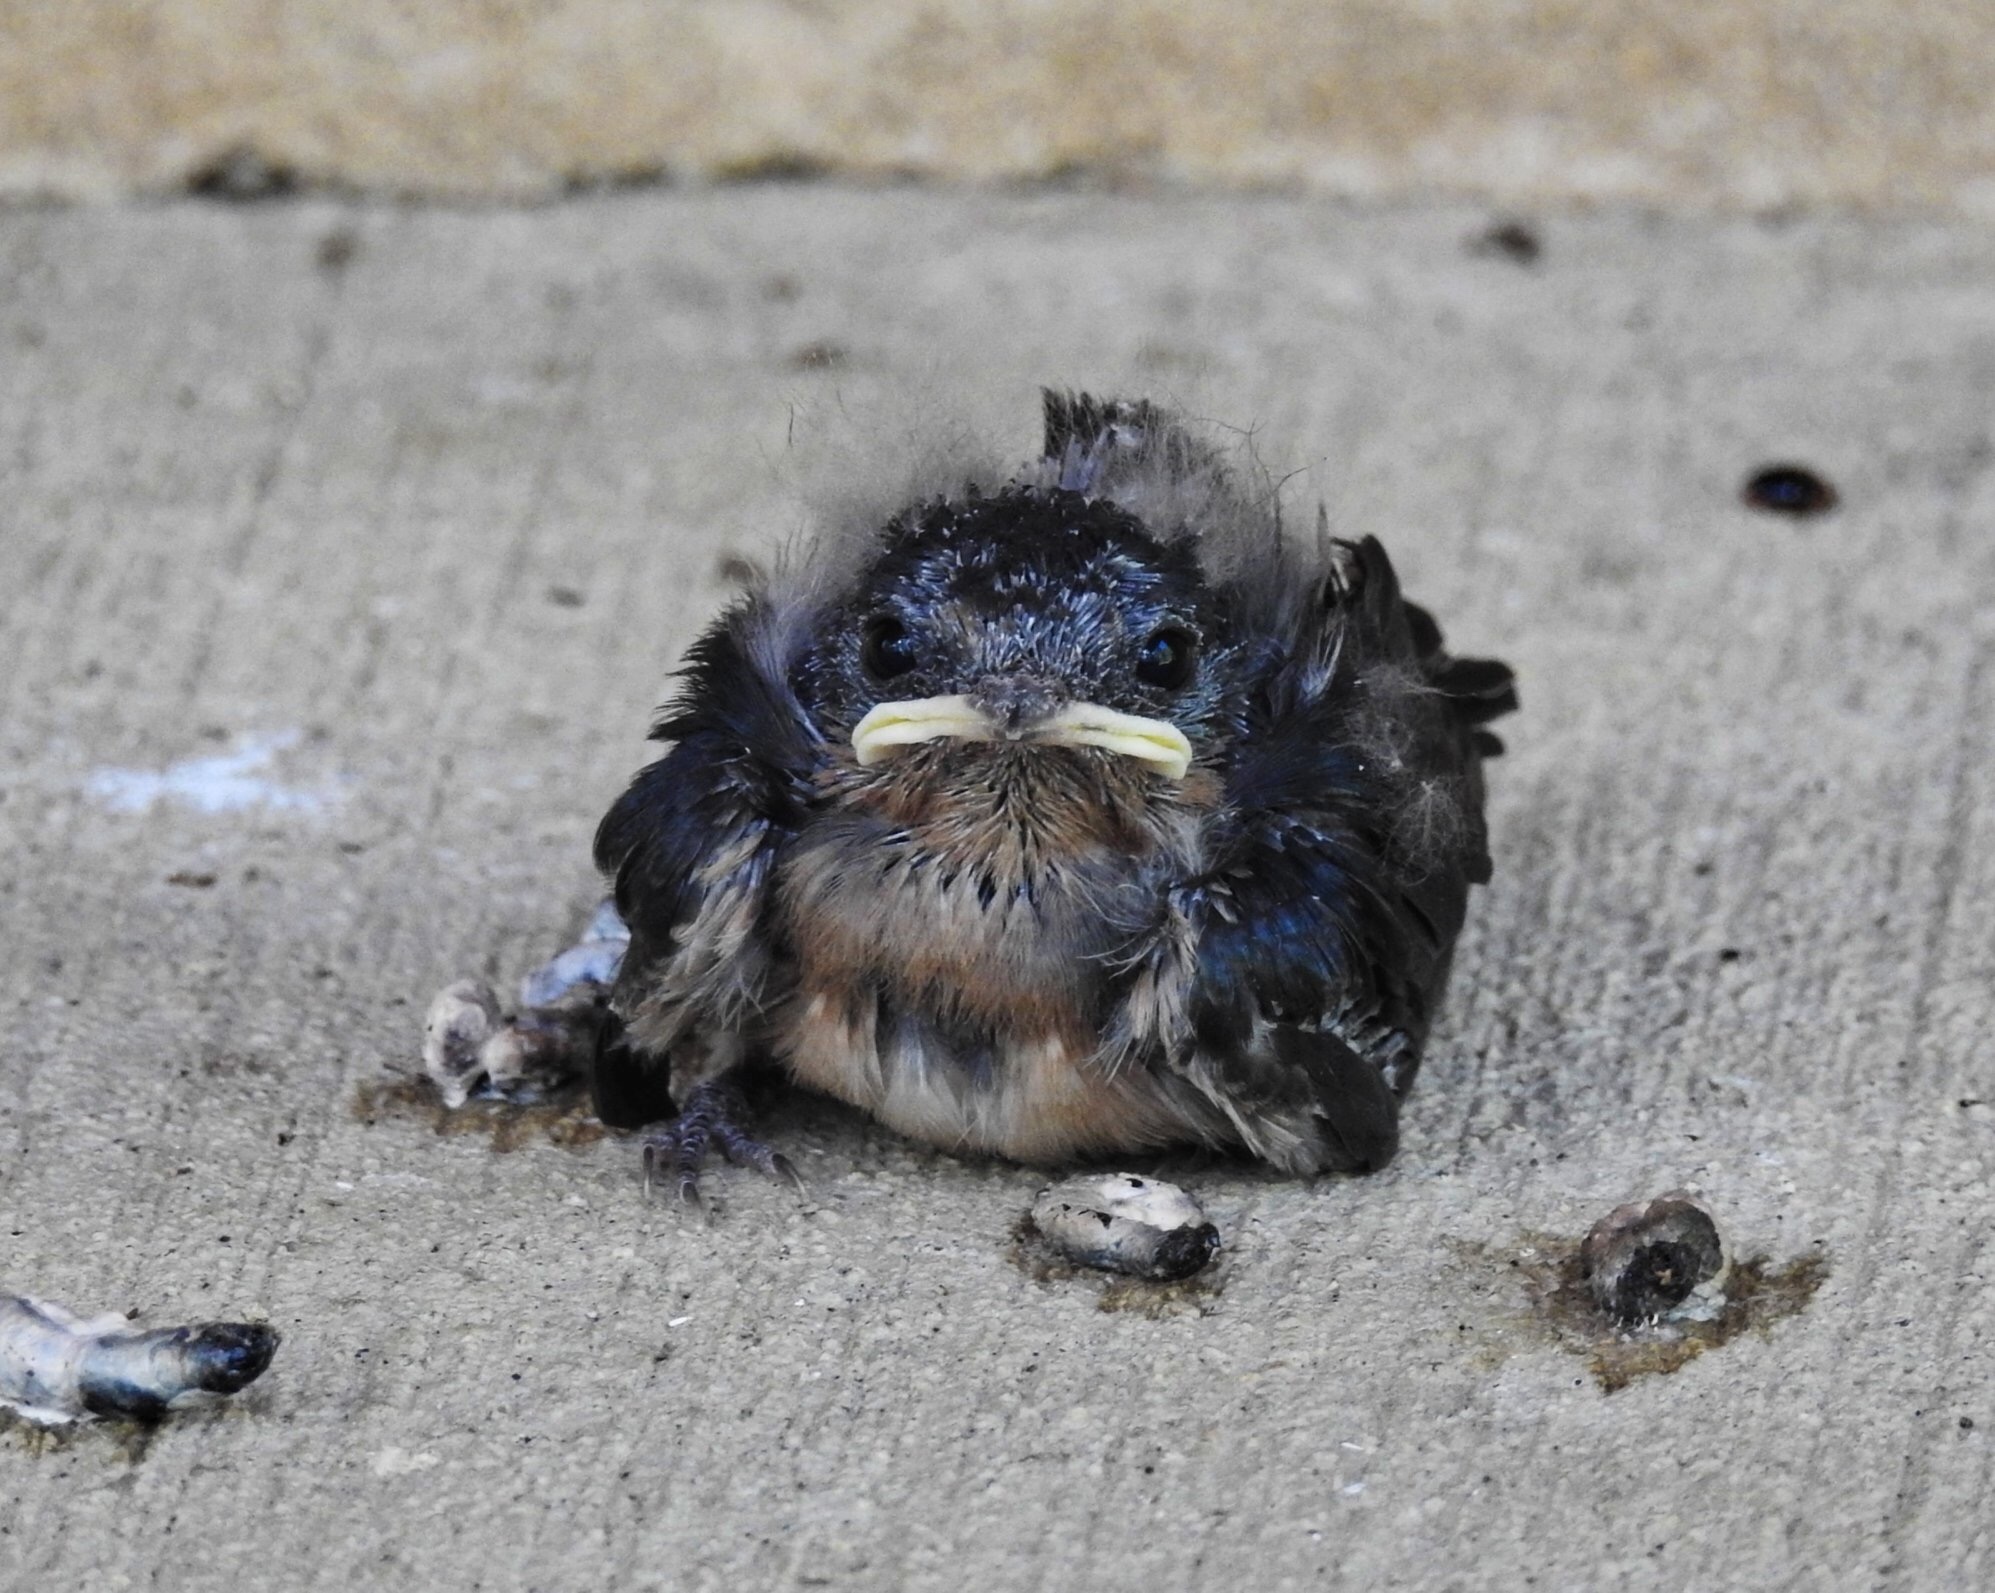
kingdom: Animalia
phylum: Chordata
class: Aves
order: Passeriformes
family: Hirundinidae
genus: Hirundo
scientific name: Hirundo rustica
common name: Barn swallow
